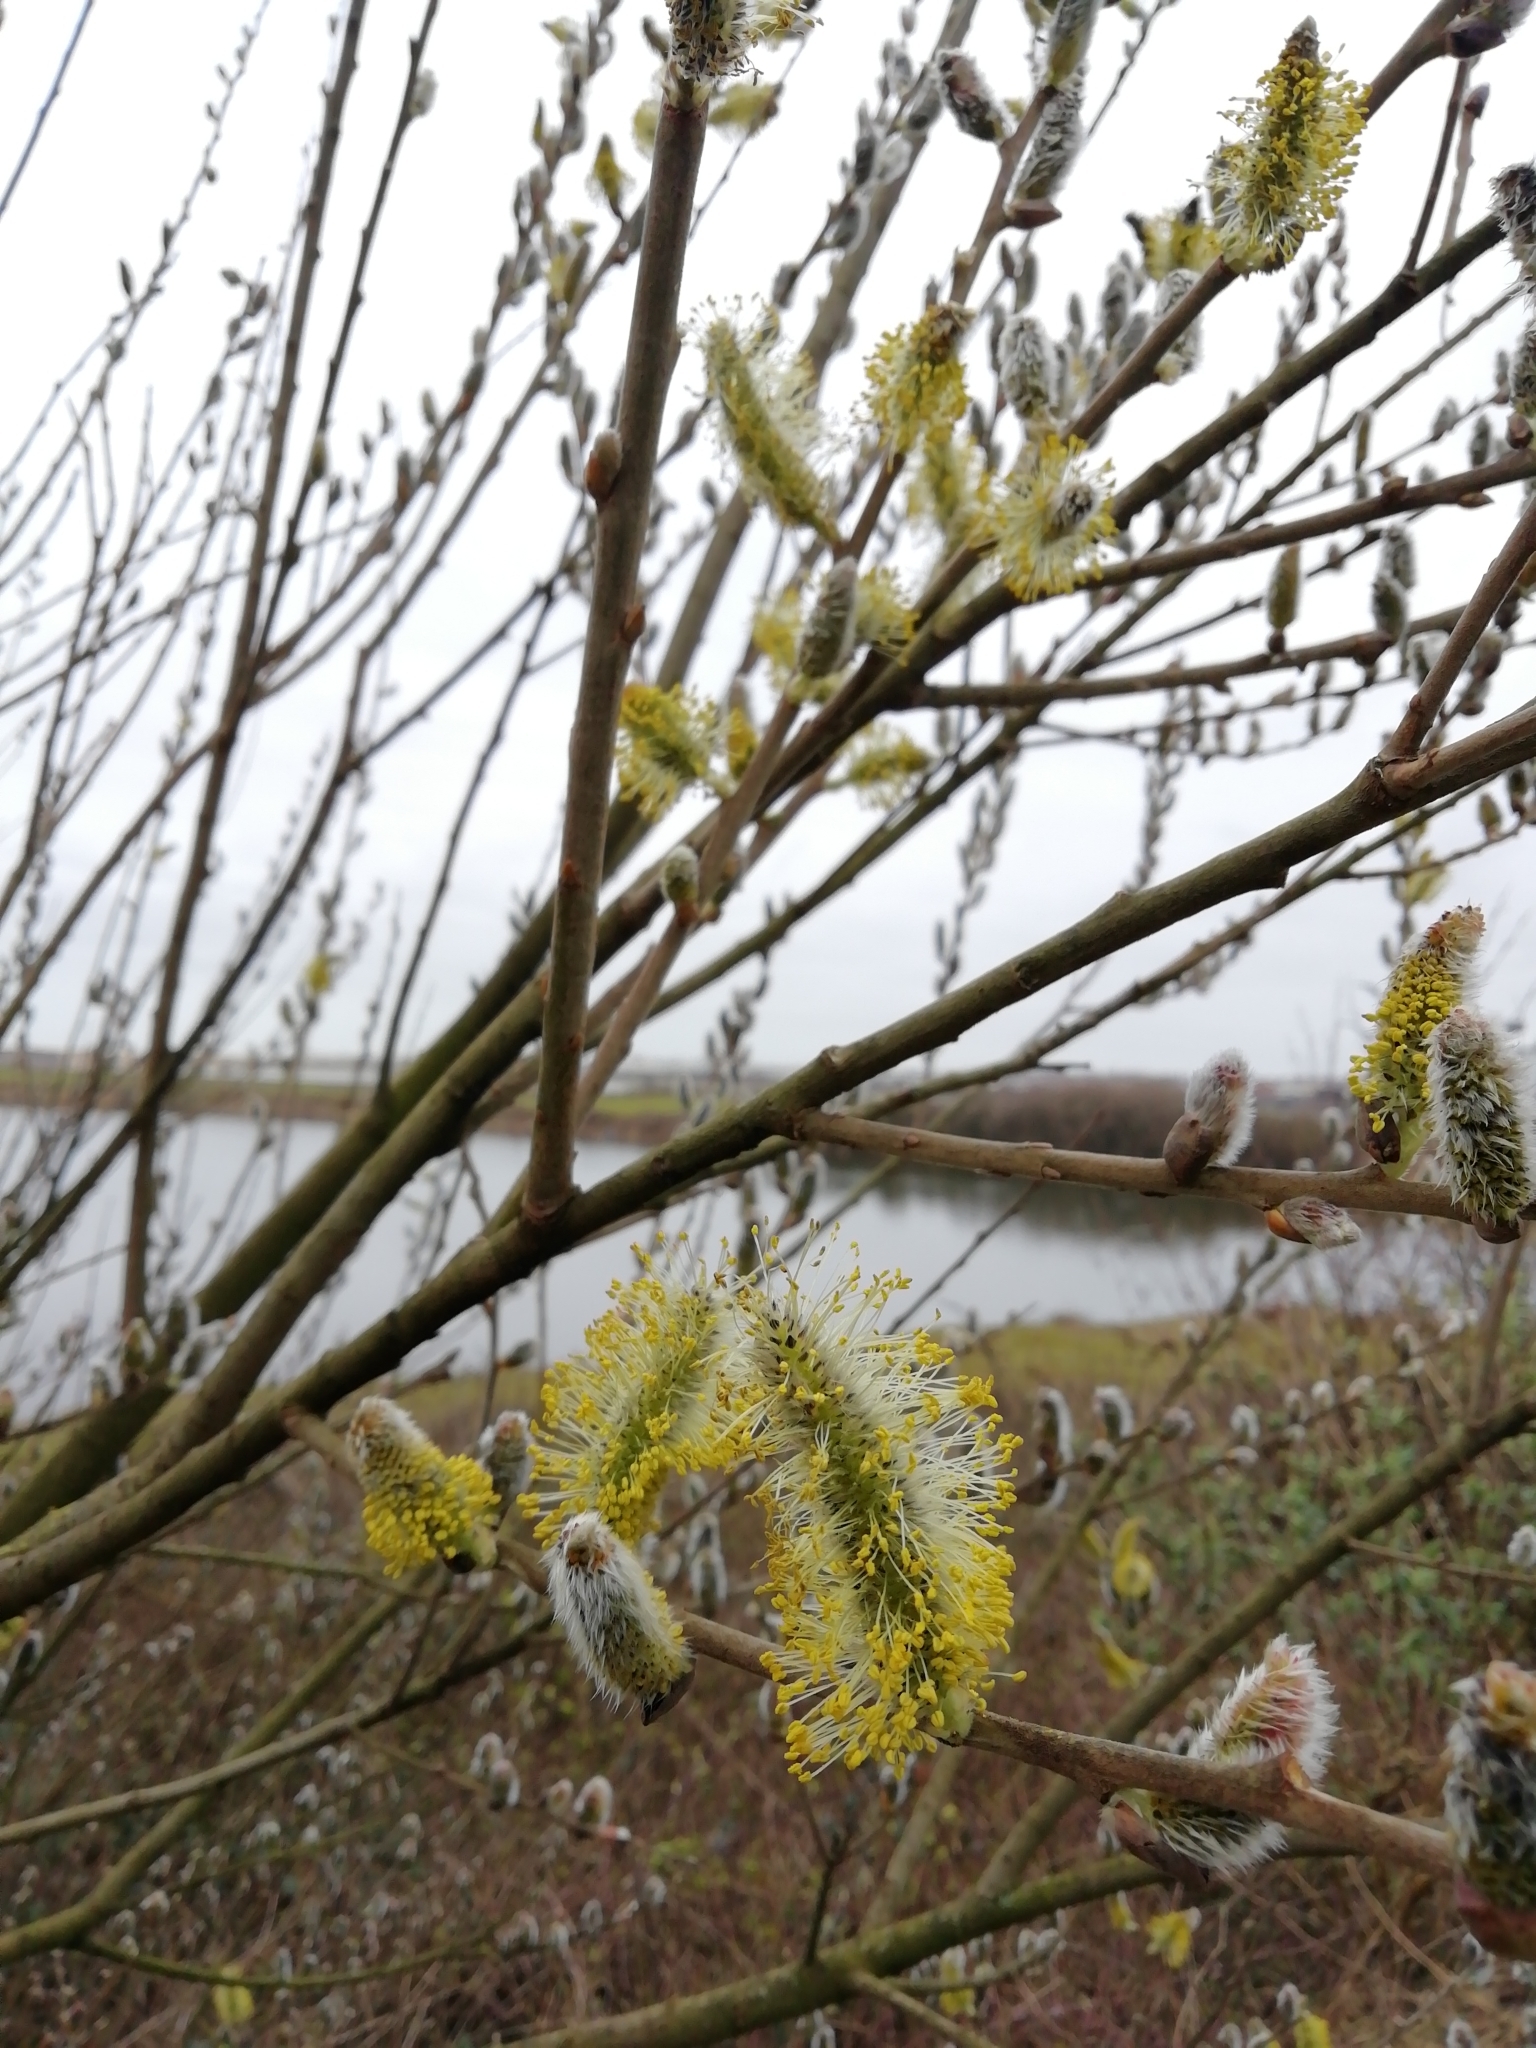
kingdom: Plantae
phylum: Tracheophyta
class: Magnoliopsida
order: Malpighiales
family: Salicaceae
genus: Salix
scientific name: Salix caprea
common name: Goat willow
